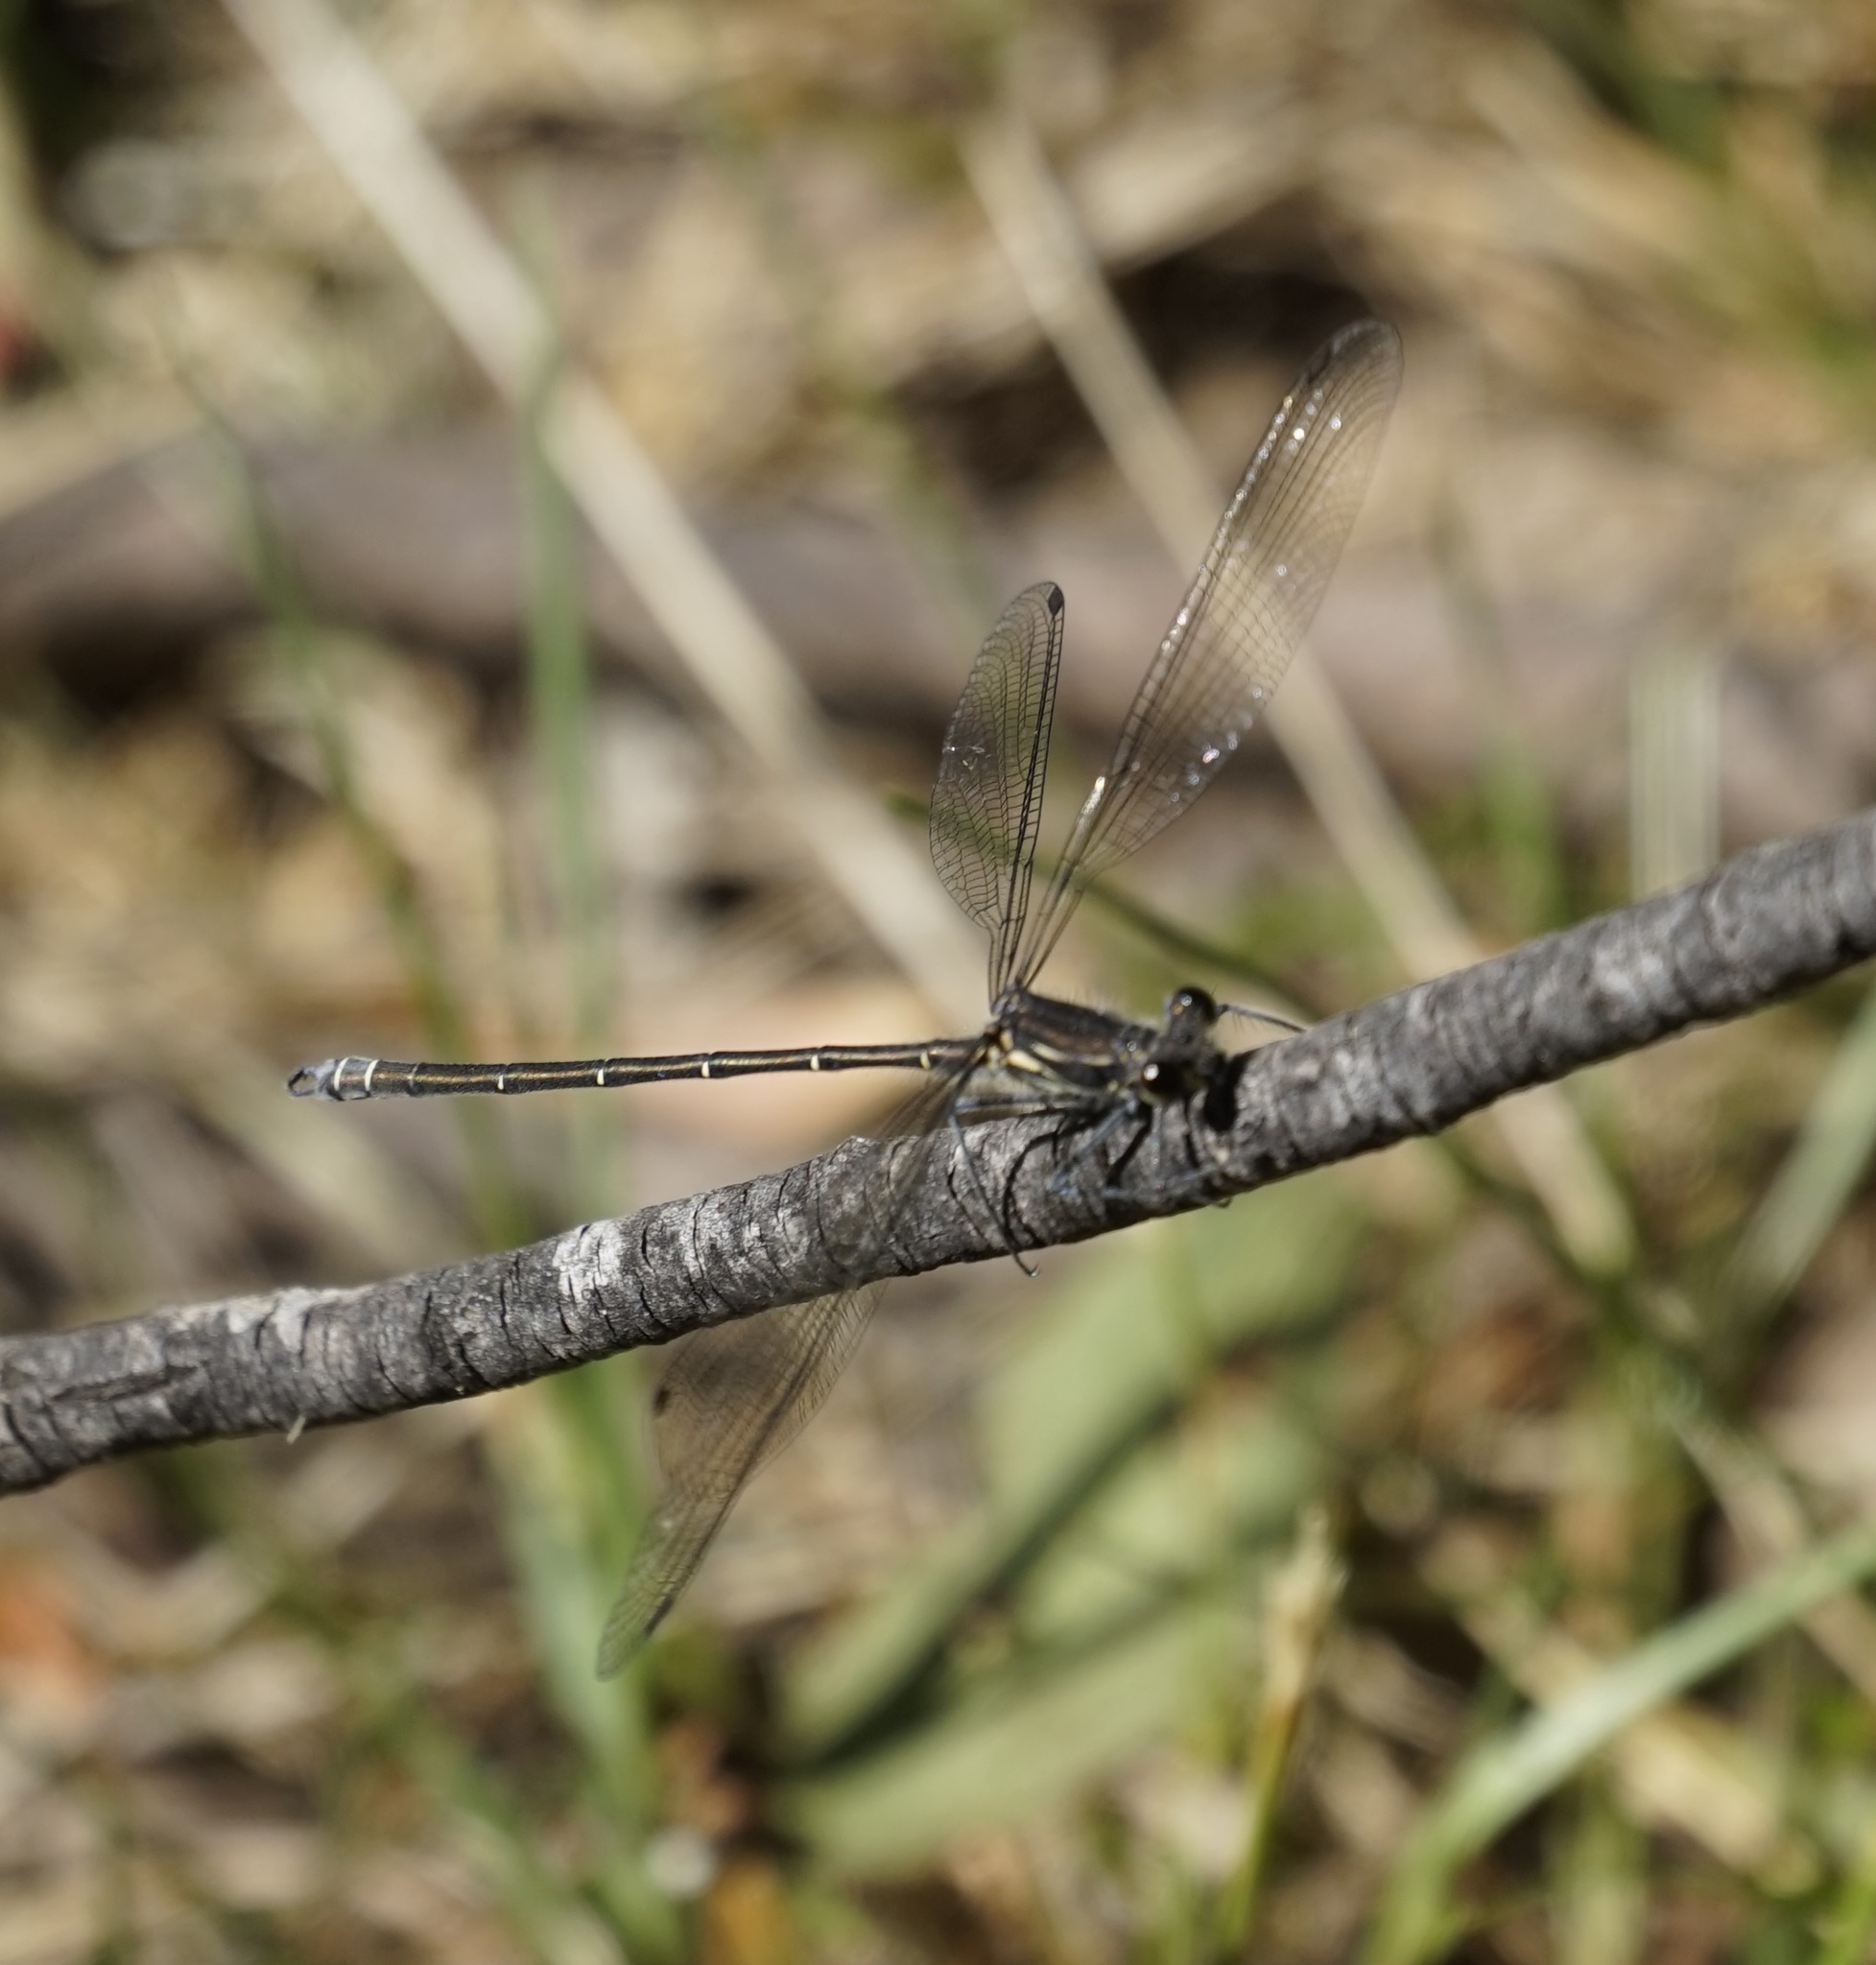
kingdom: Animalia
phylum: Arthropoda
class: Insecta
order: Odonata
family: Argiolestidae
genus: Austroargiolestes
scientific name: Austroargiolestes icteromelas
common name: Common flatwing
